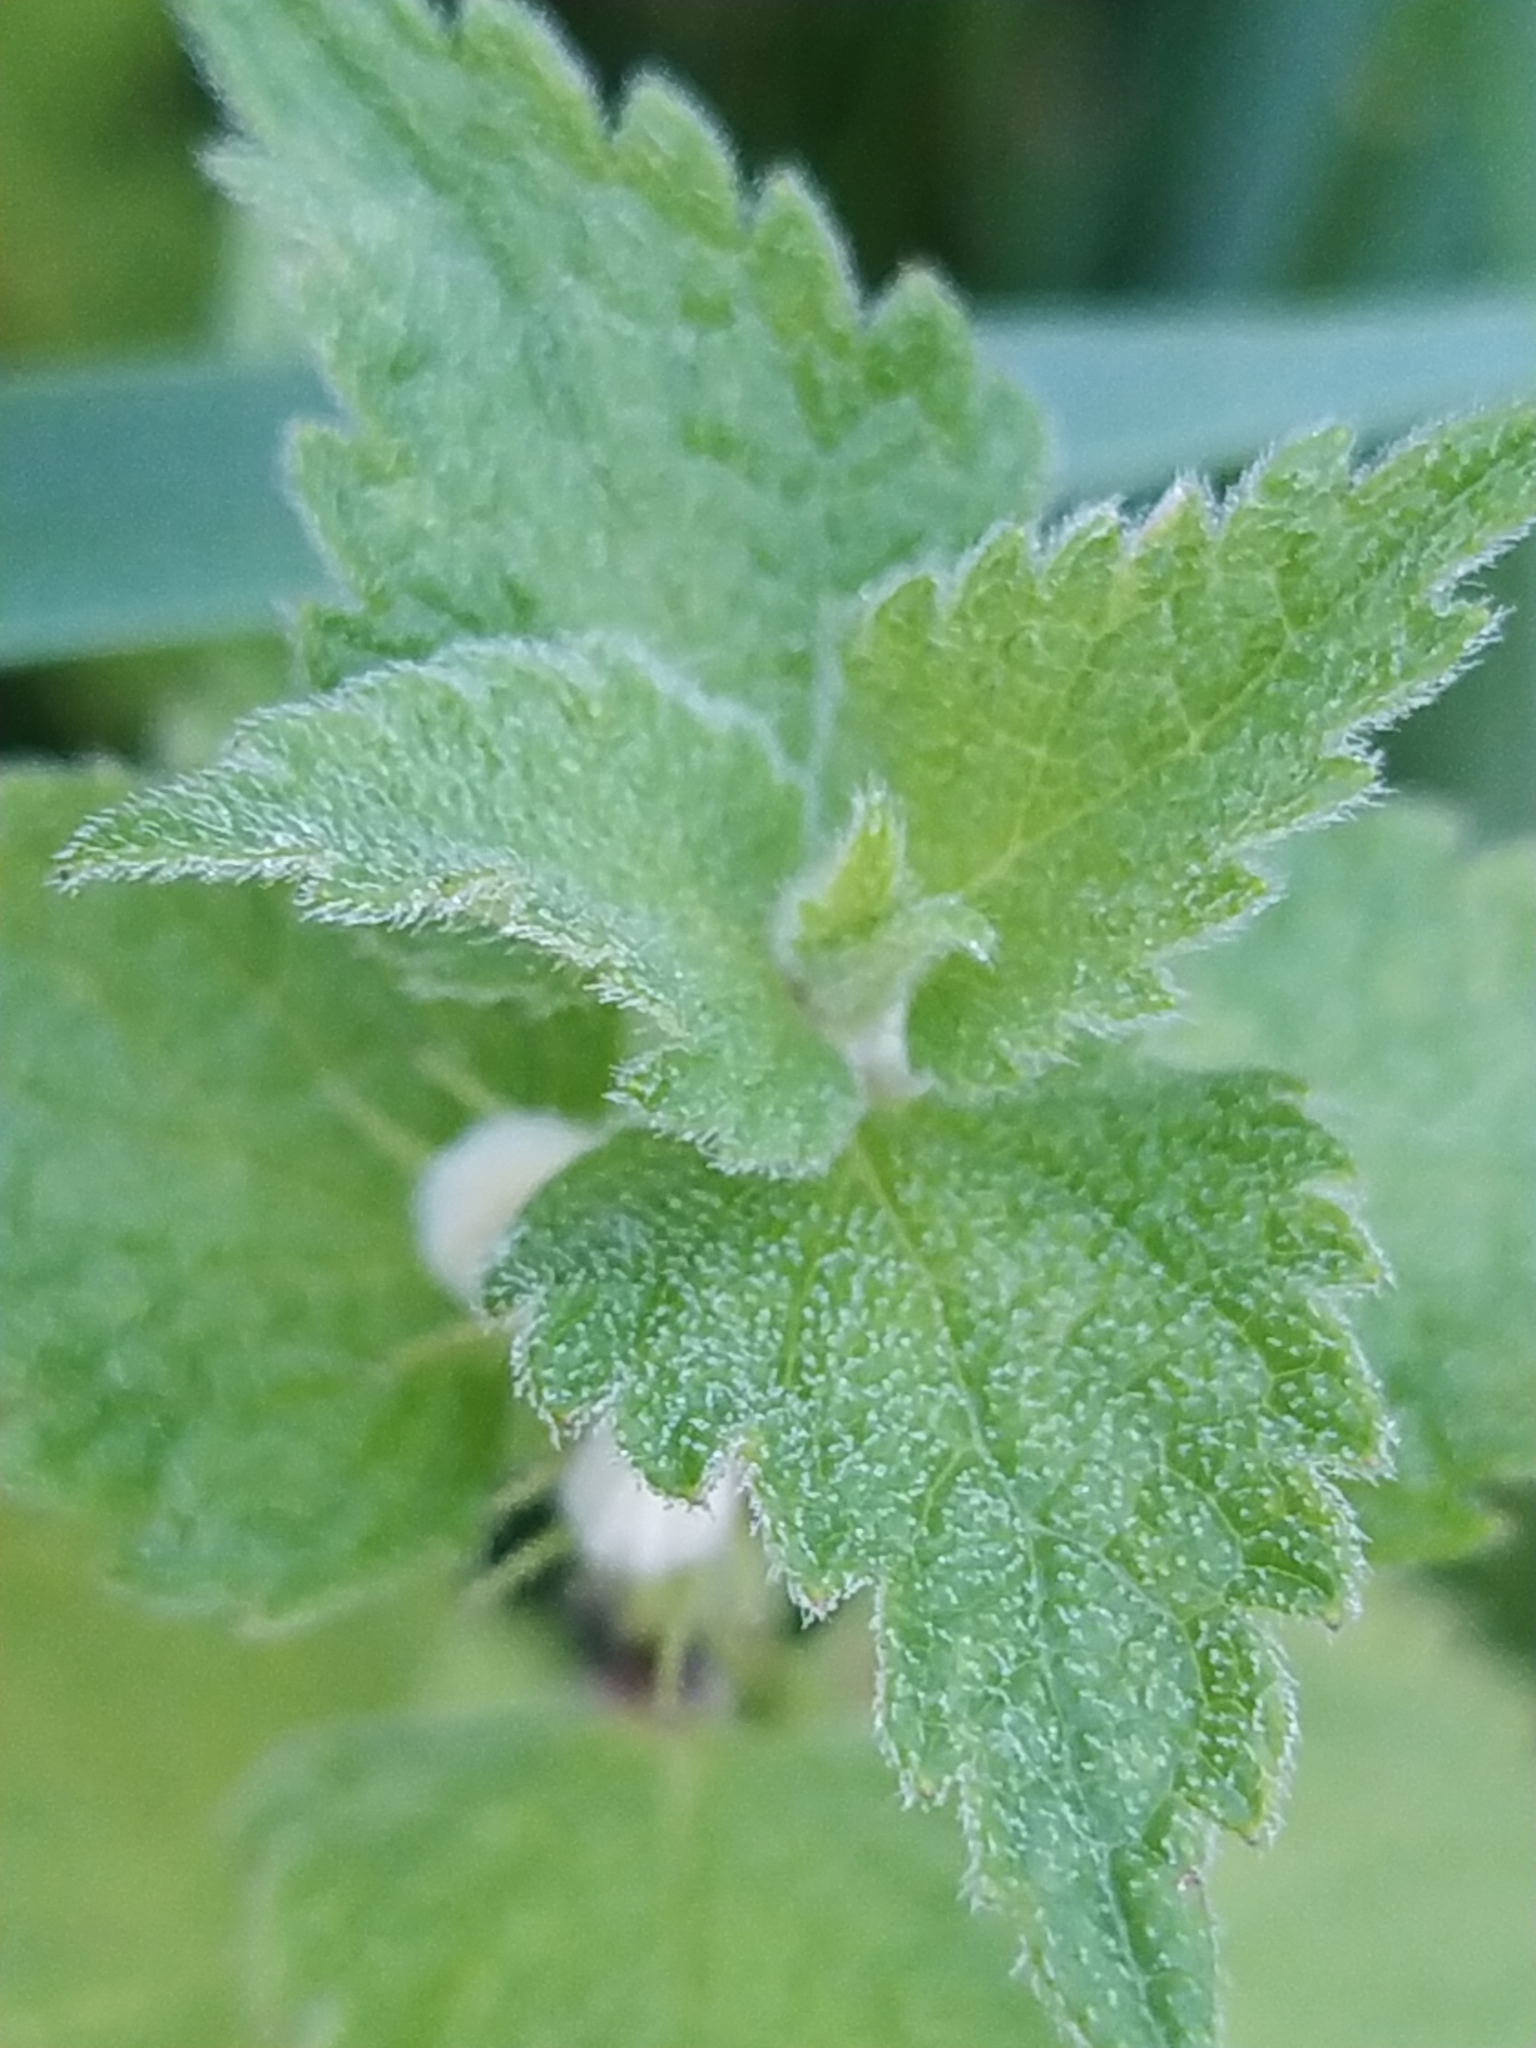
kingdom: Plantae
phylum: Tracheophyta
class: Magnoliopsida
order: Lamiales
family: Lamiaceae
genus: Lamium
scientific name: Lamium album
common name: White dead-nettle
